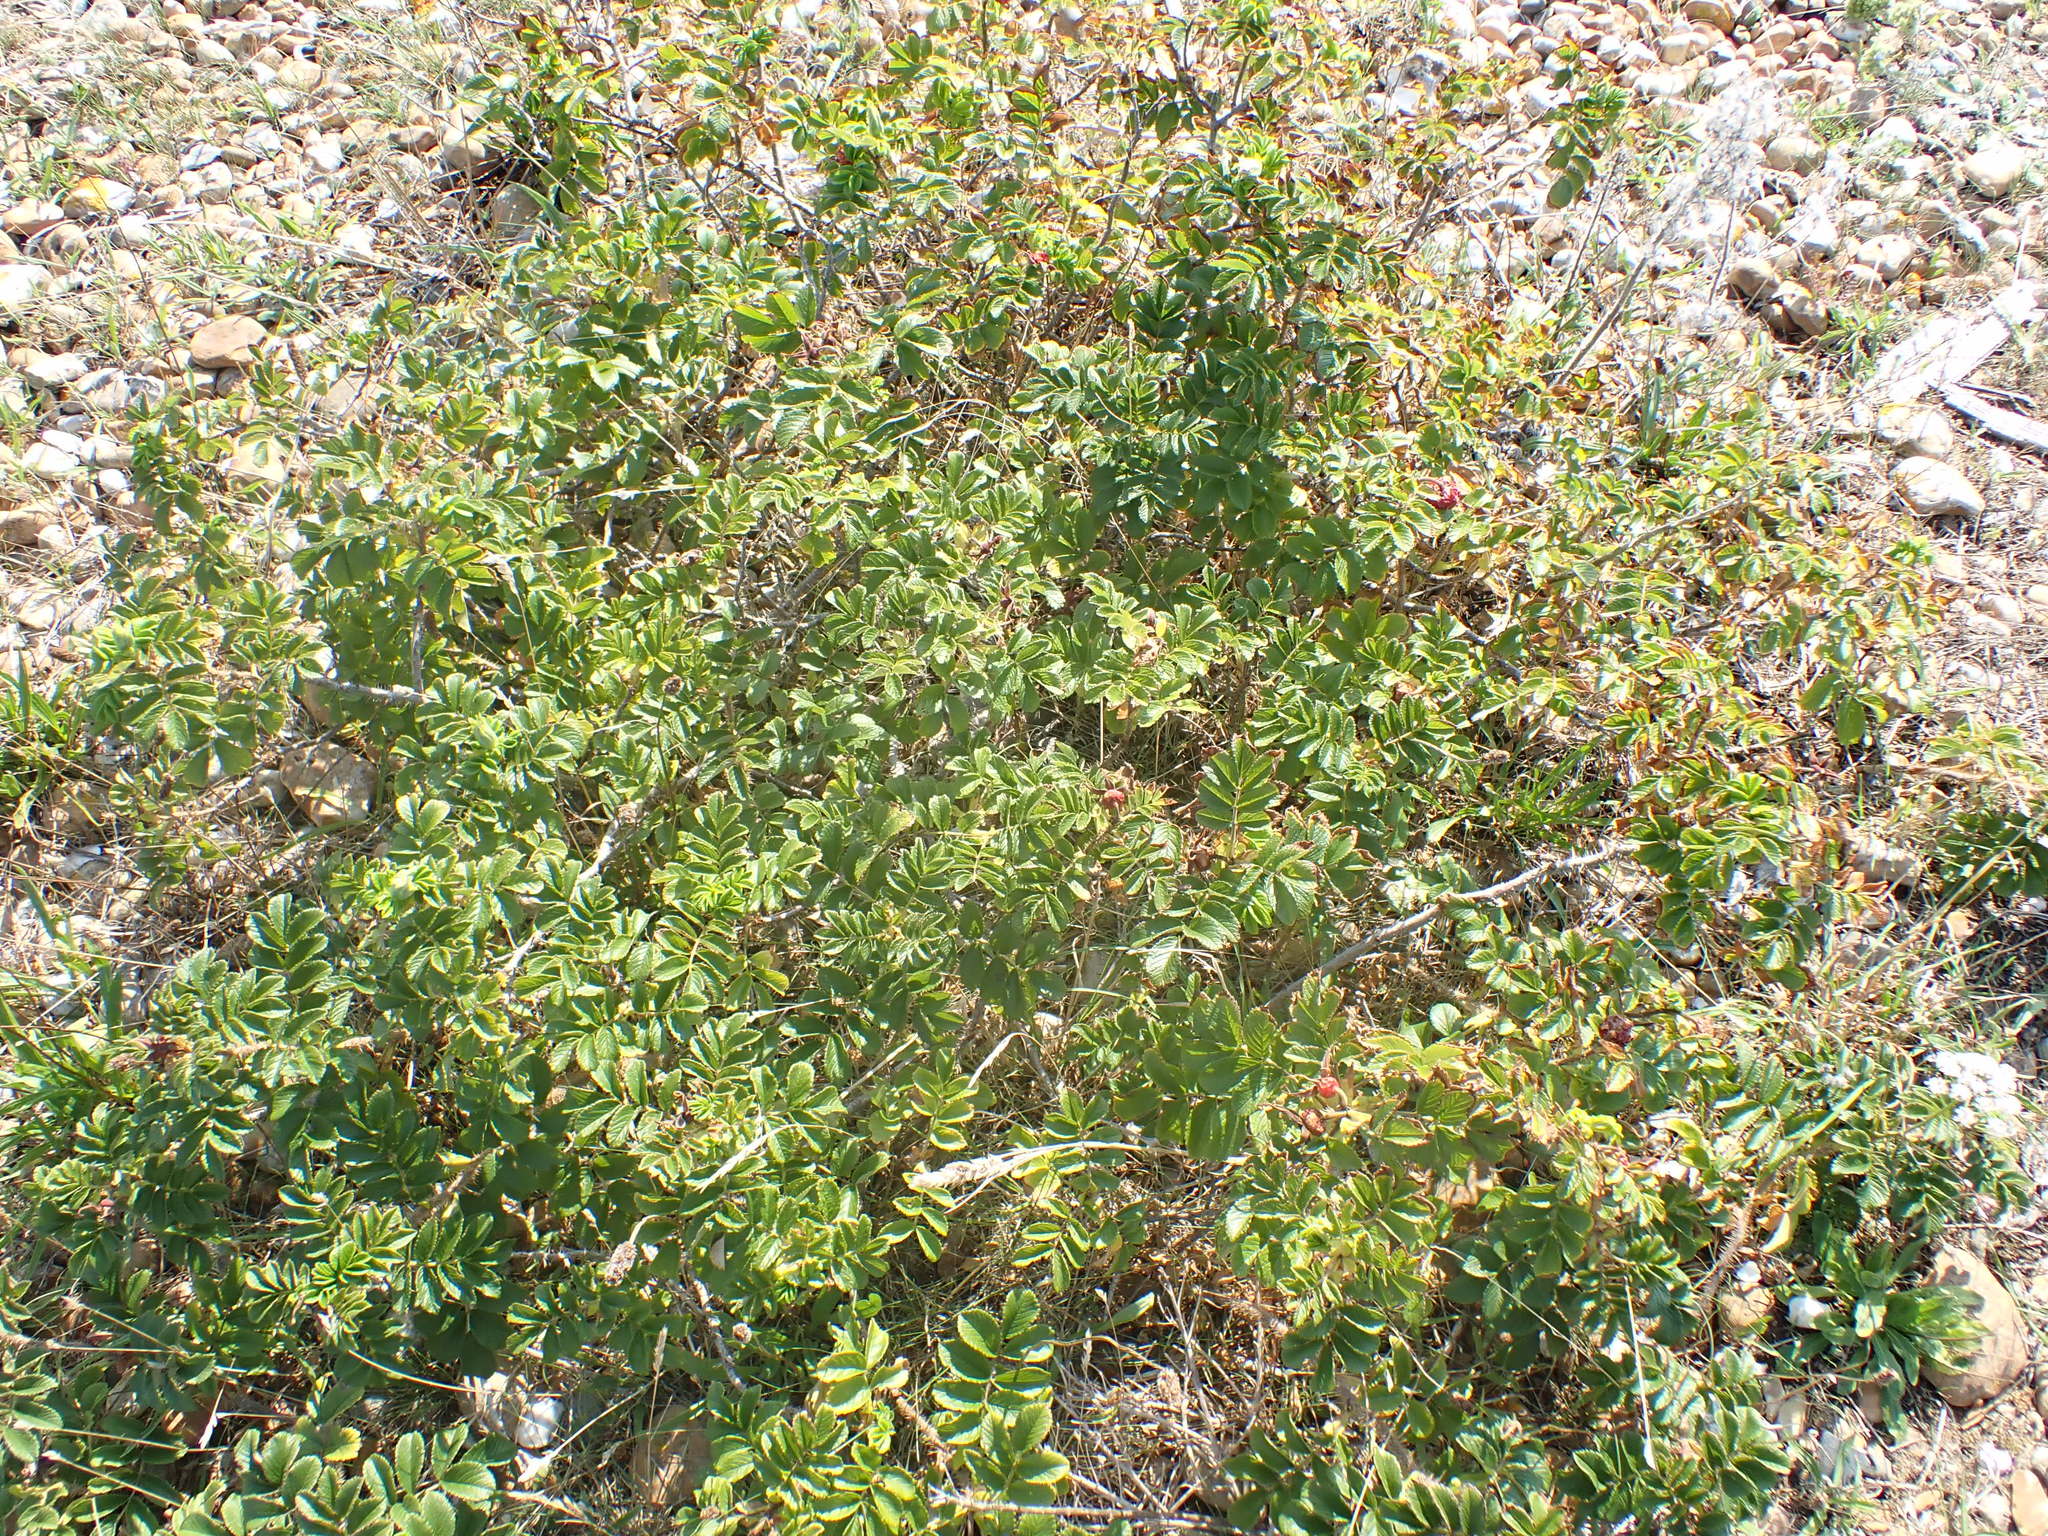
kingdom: Plantae
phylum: Tracheophyta
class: Magnoliopsida
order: Rosales
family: Rosaceae
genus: Rosa
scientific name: Rosa rugosa
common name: Japanese rose
